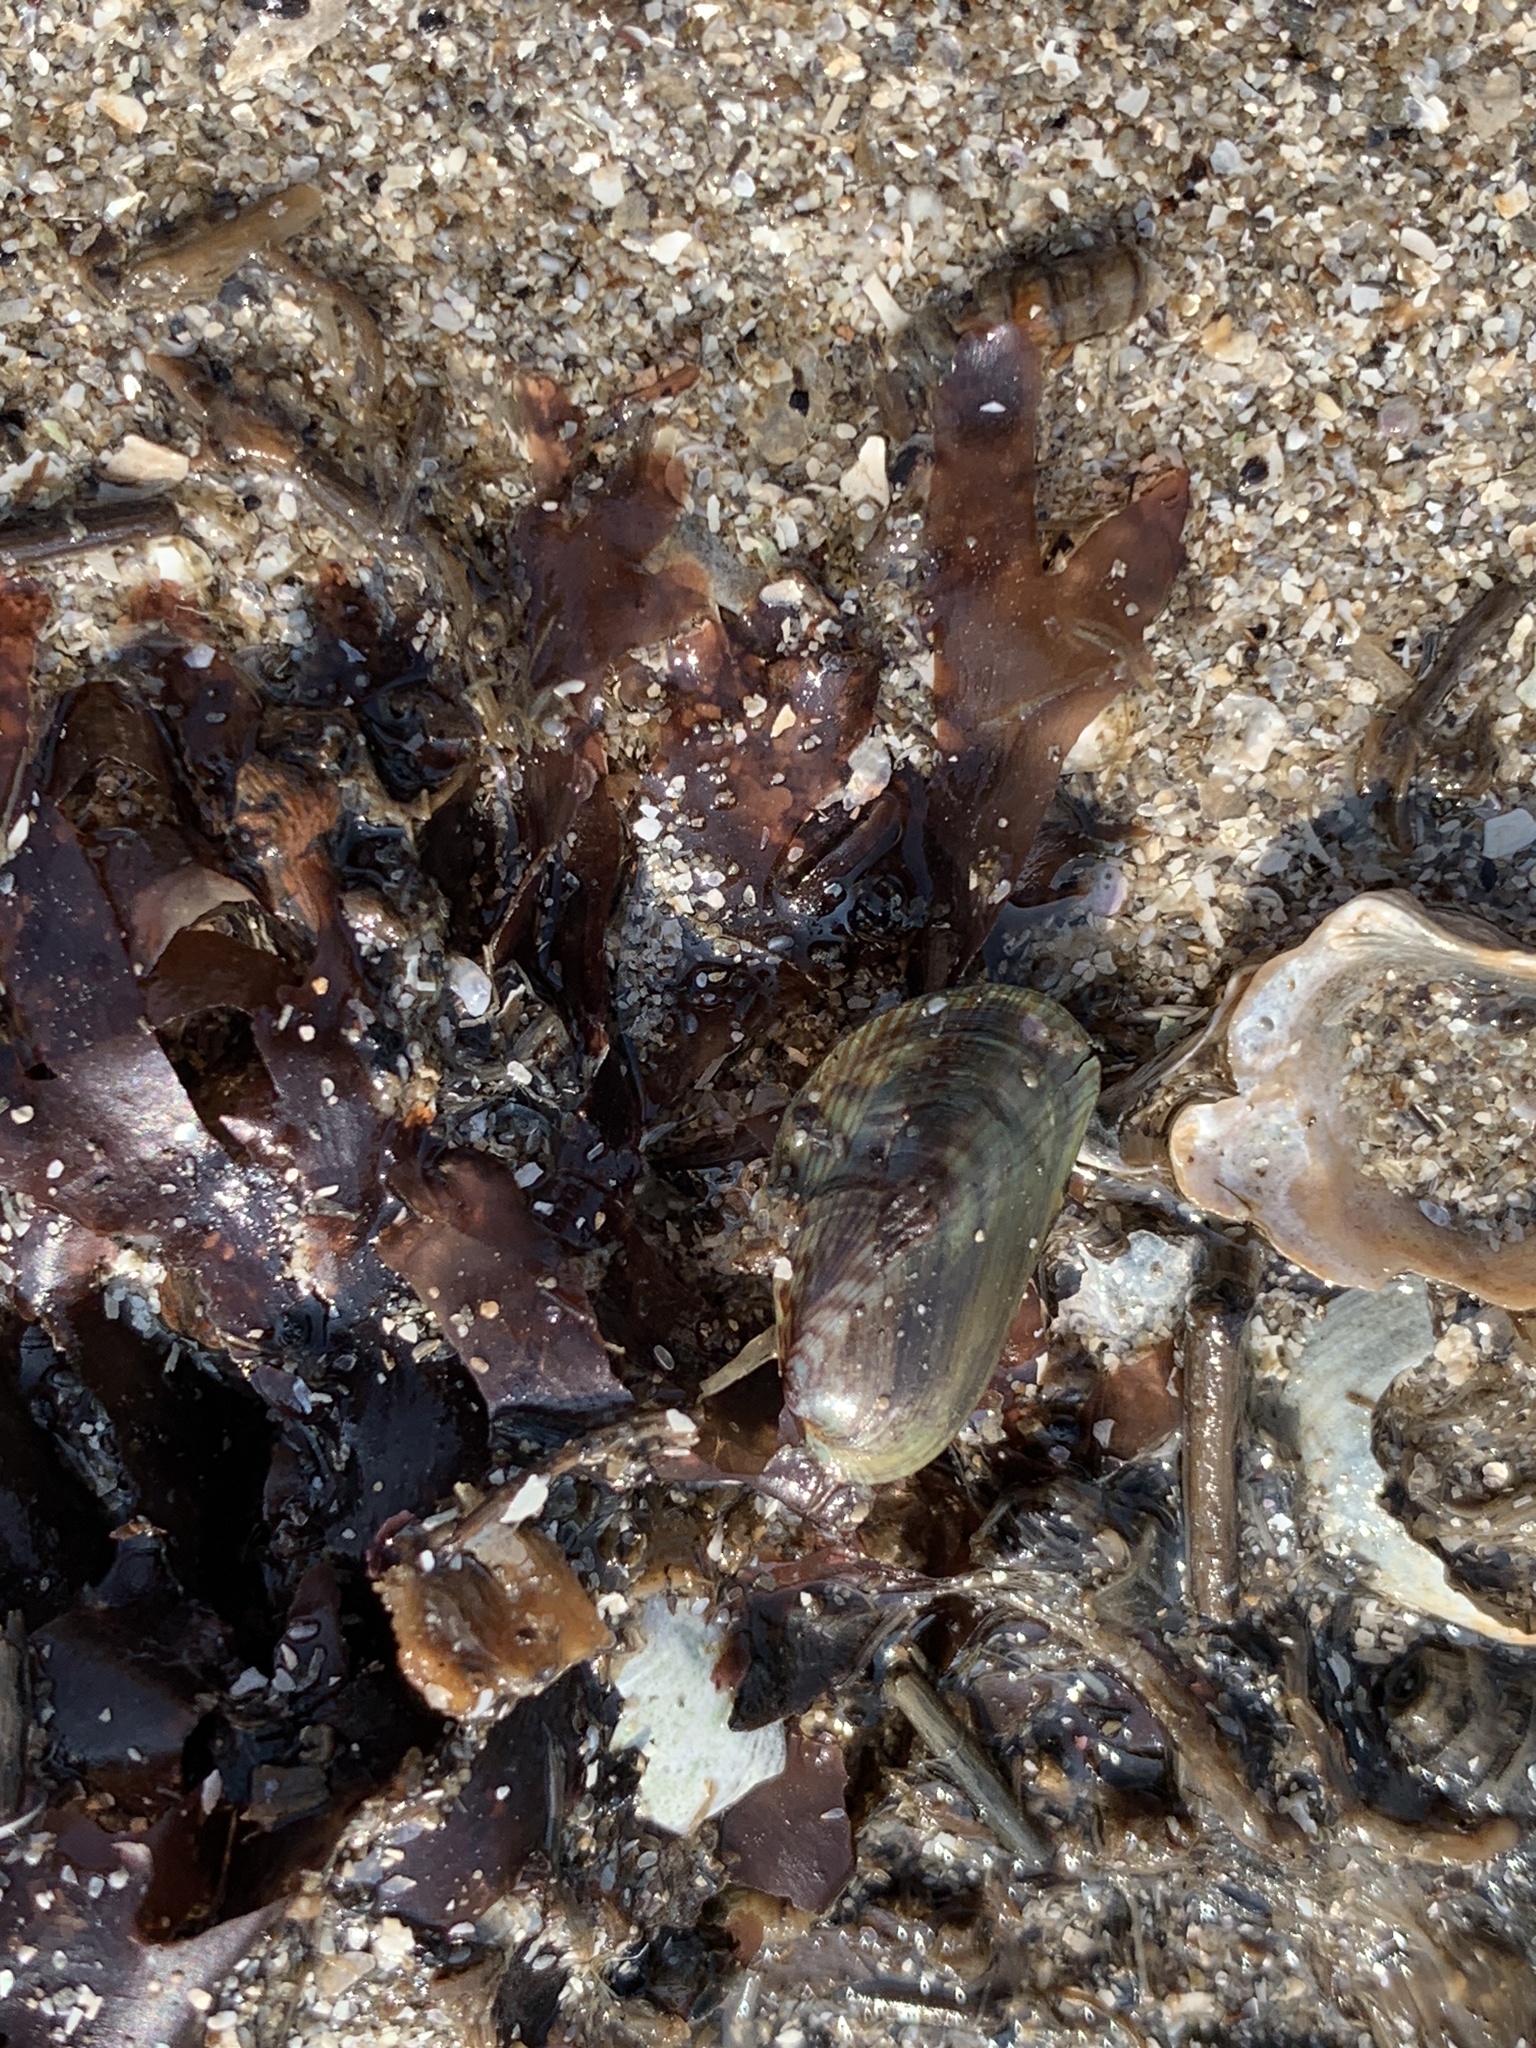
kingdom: Animalia
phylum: Mollusca
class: Bivalvia
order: Mytilida
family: Mytilidae
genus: Arcuatula
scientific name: Arcuatula senhousia
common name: Asian mussel
